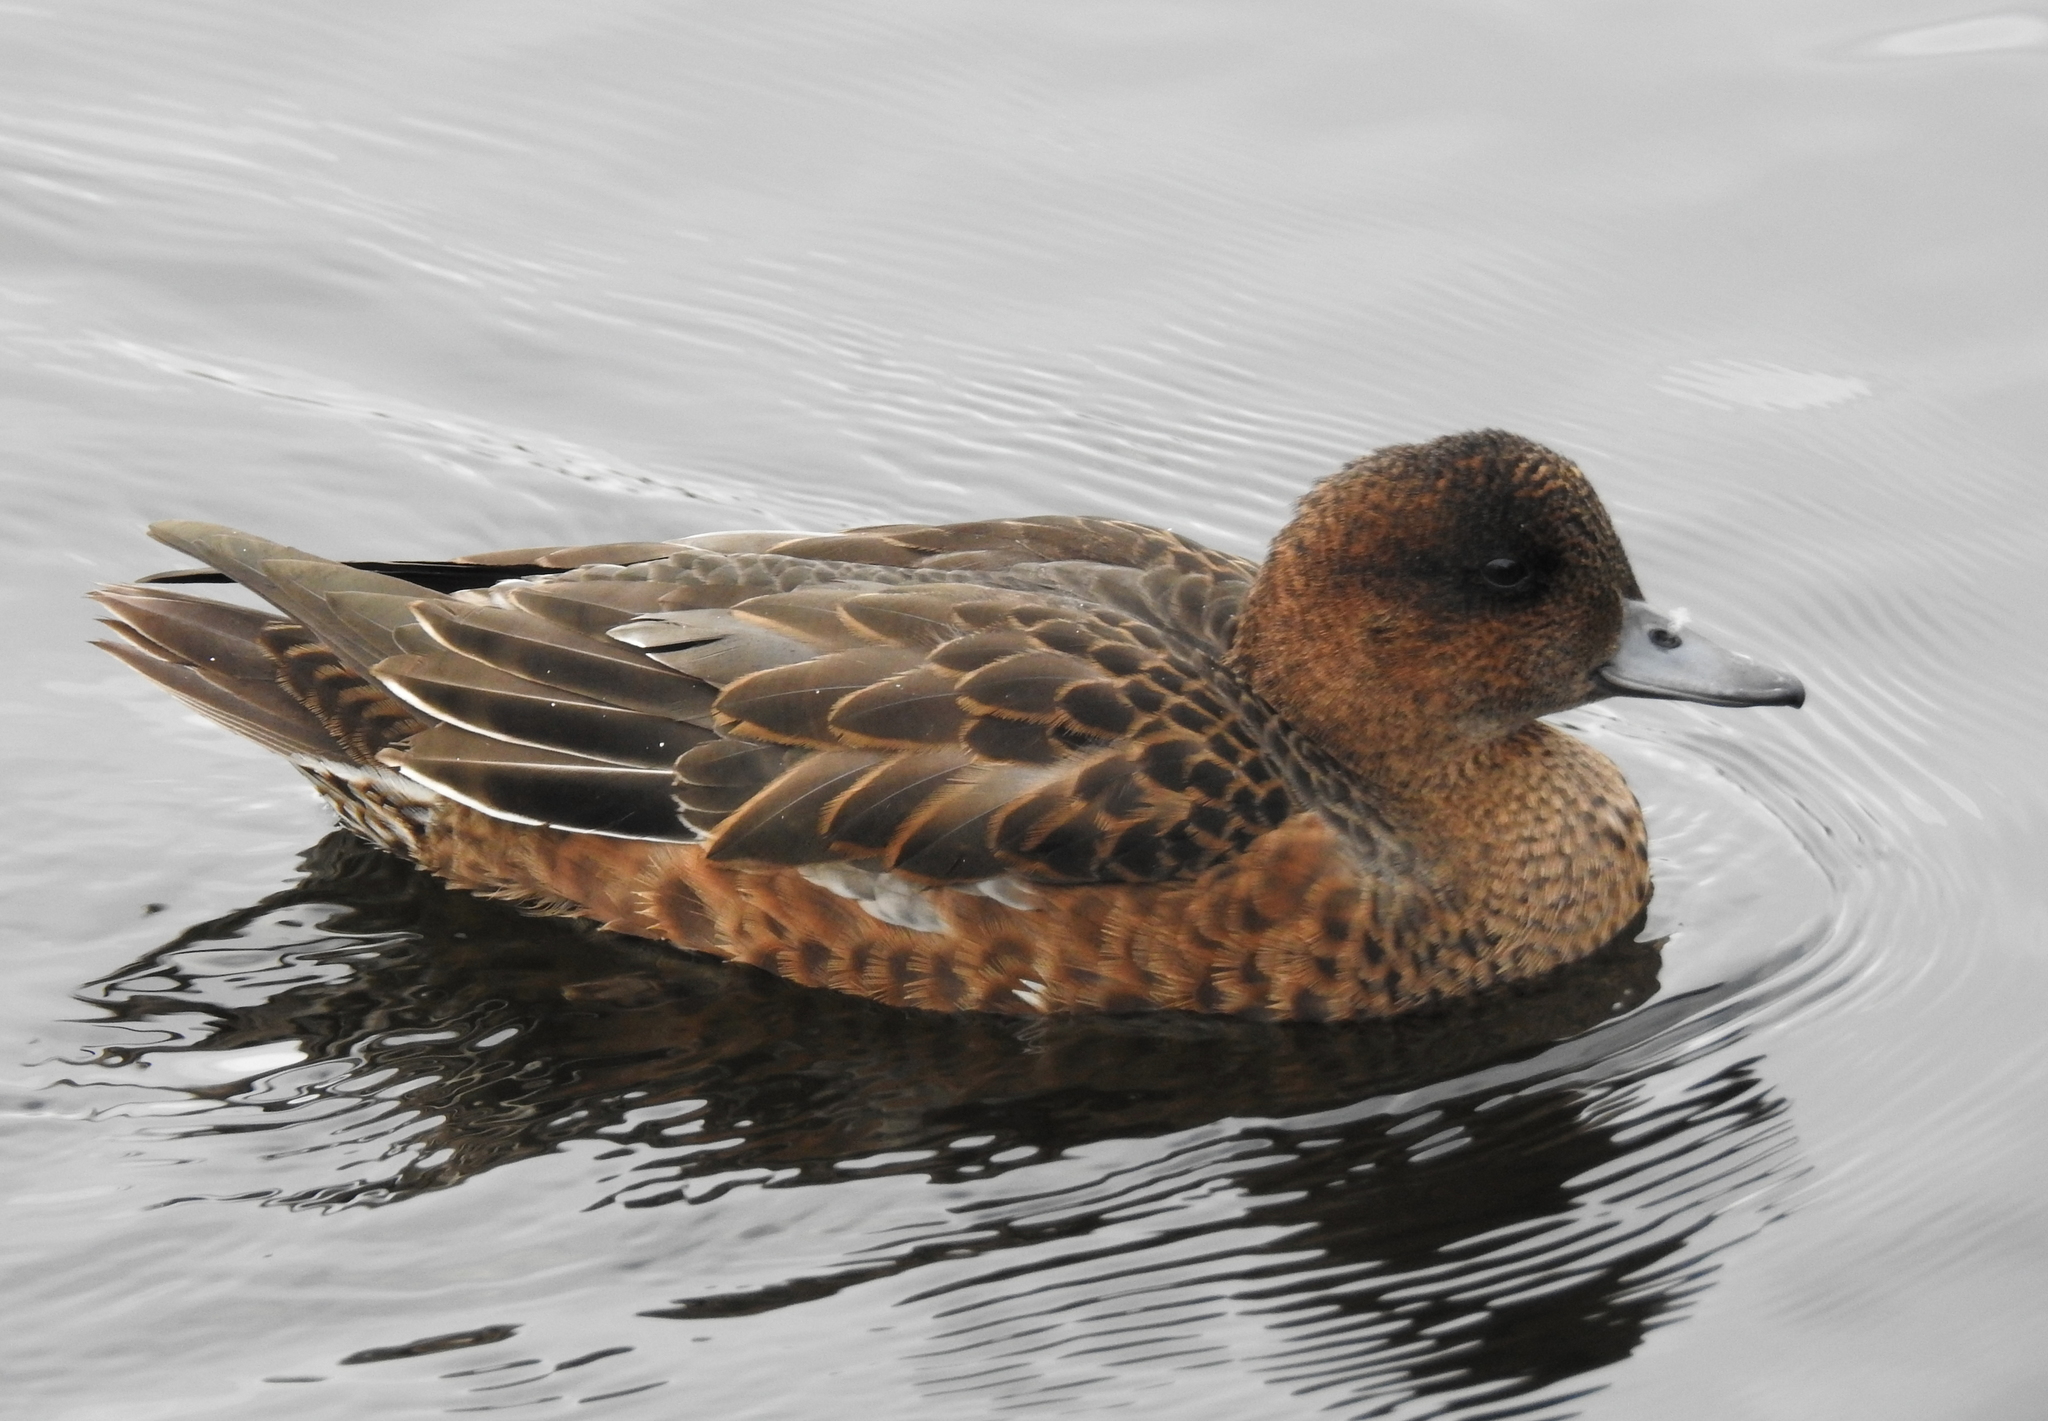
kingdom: Animalia
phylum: Chordata
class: Aves
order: Anseriformes
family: Anatidae
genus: Mareca
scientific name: Mareca penelope
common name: Eurasian wigeon
